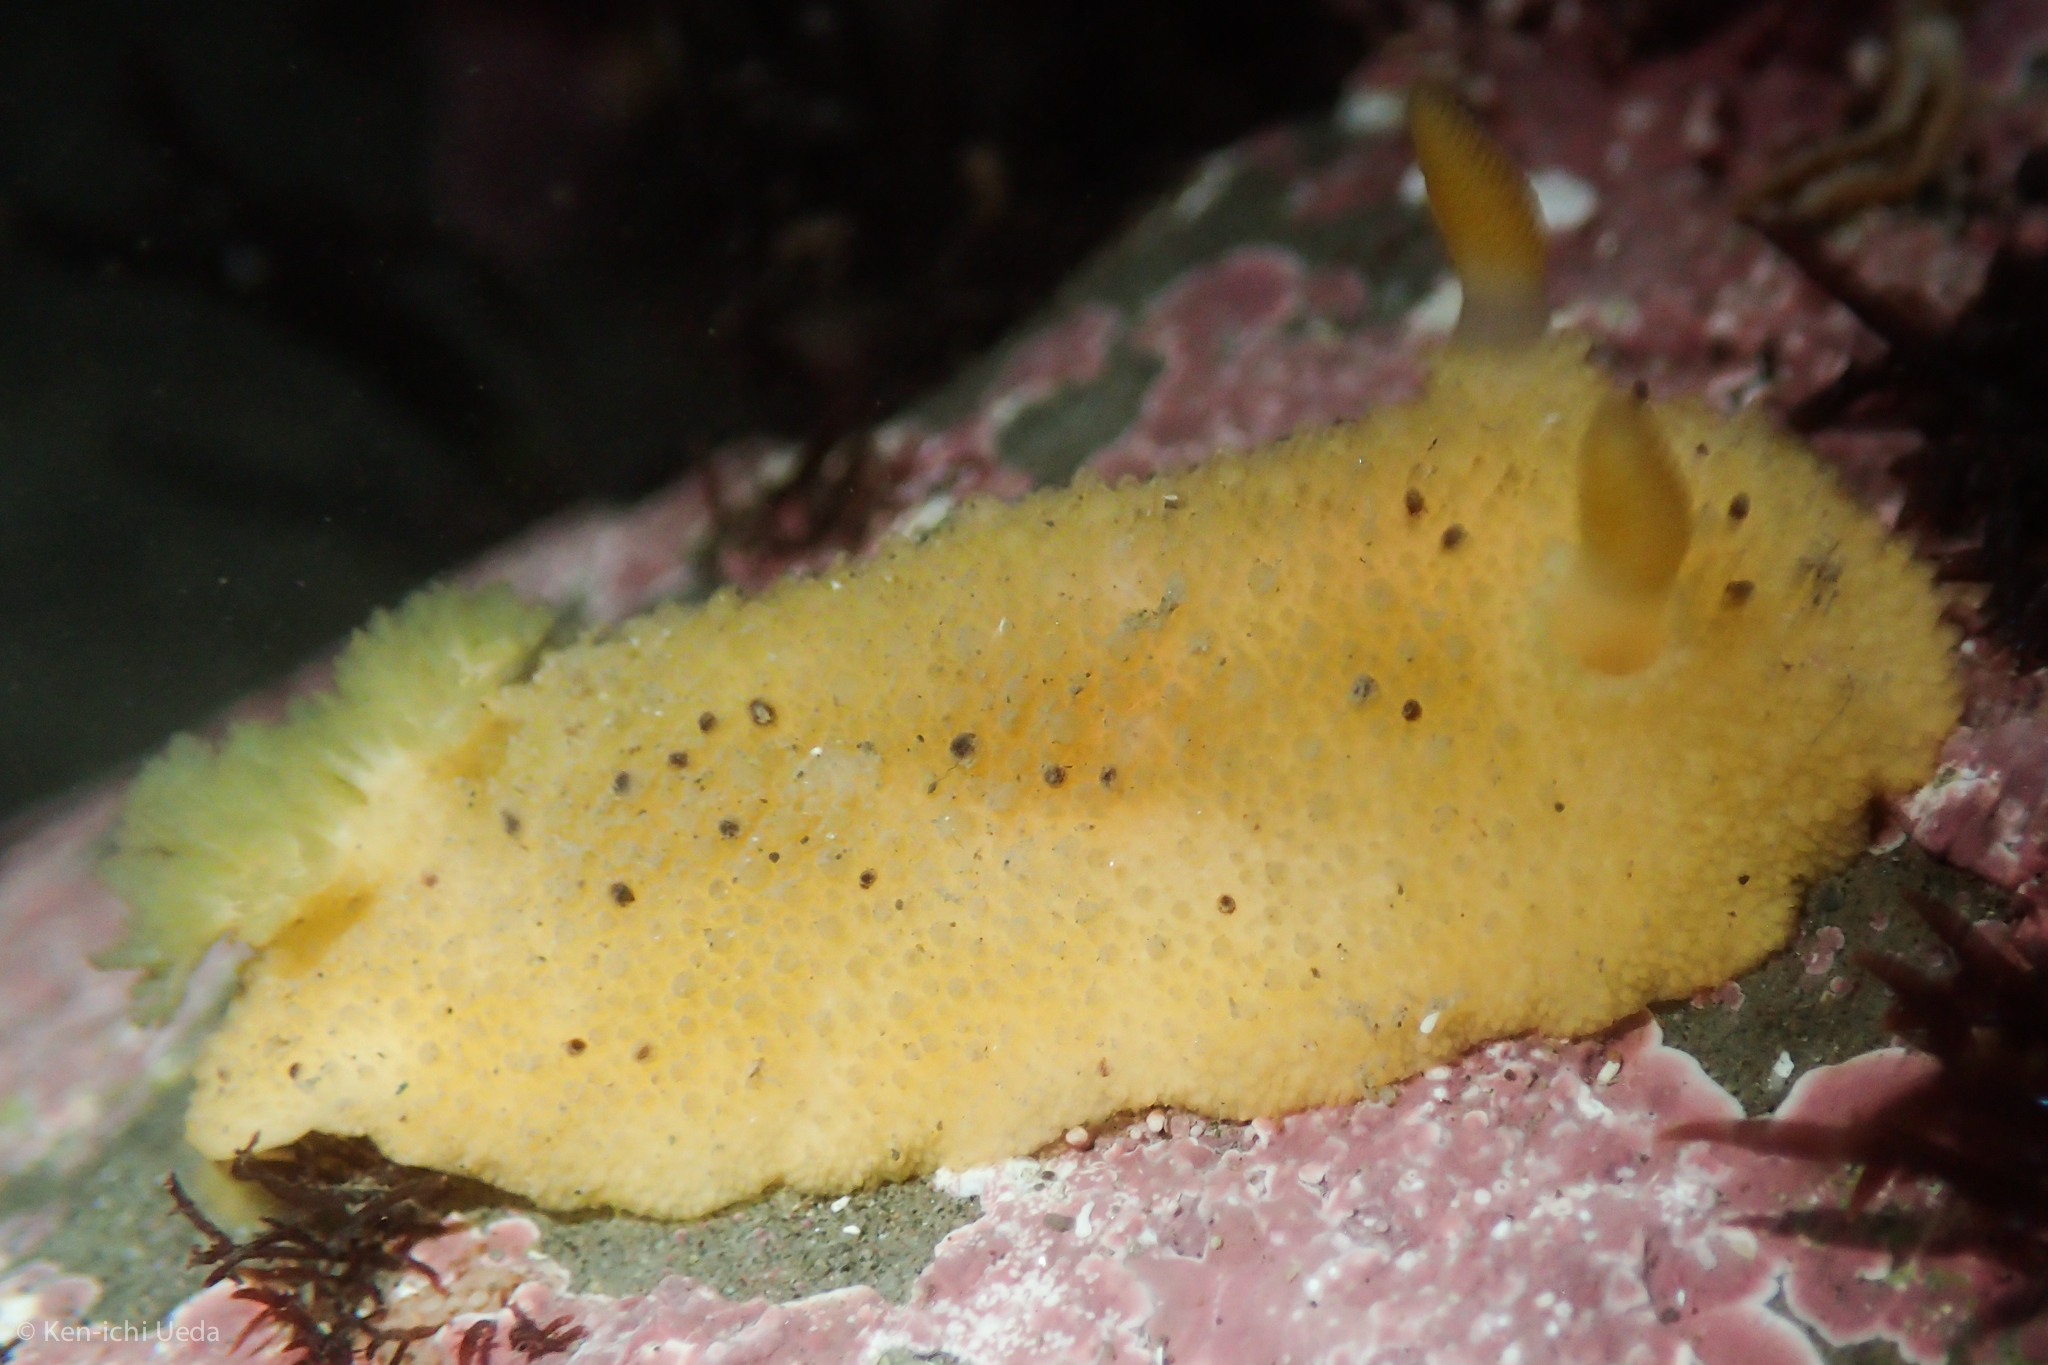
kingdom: Animalia
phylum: Mollusca
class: Gastropoda
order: Nudibranchia
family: Dorididae
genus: Doris
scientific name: Doris montereyensis
